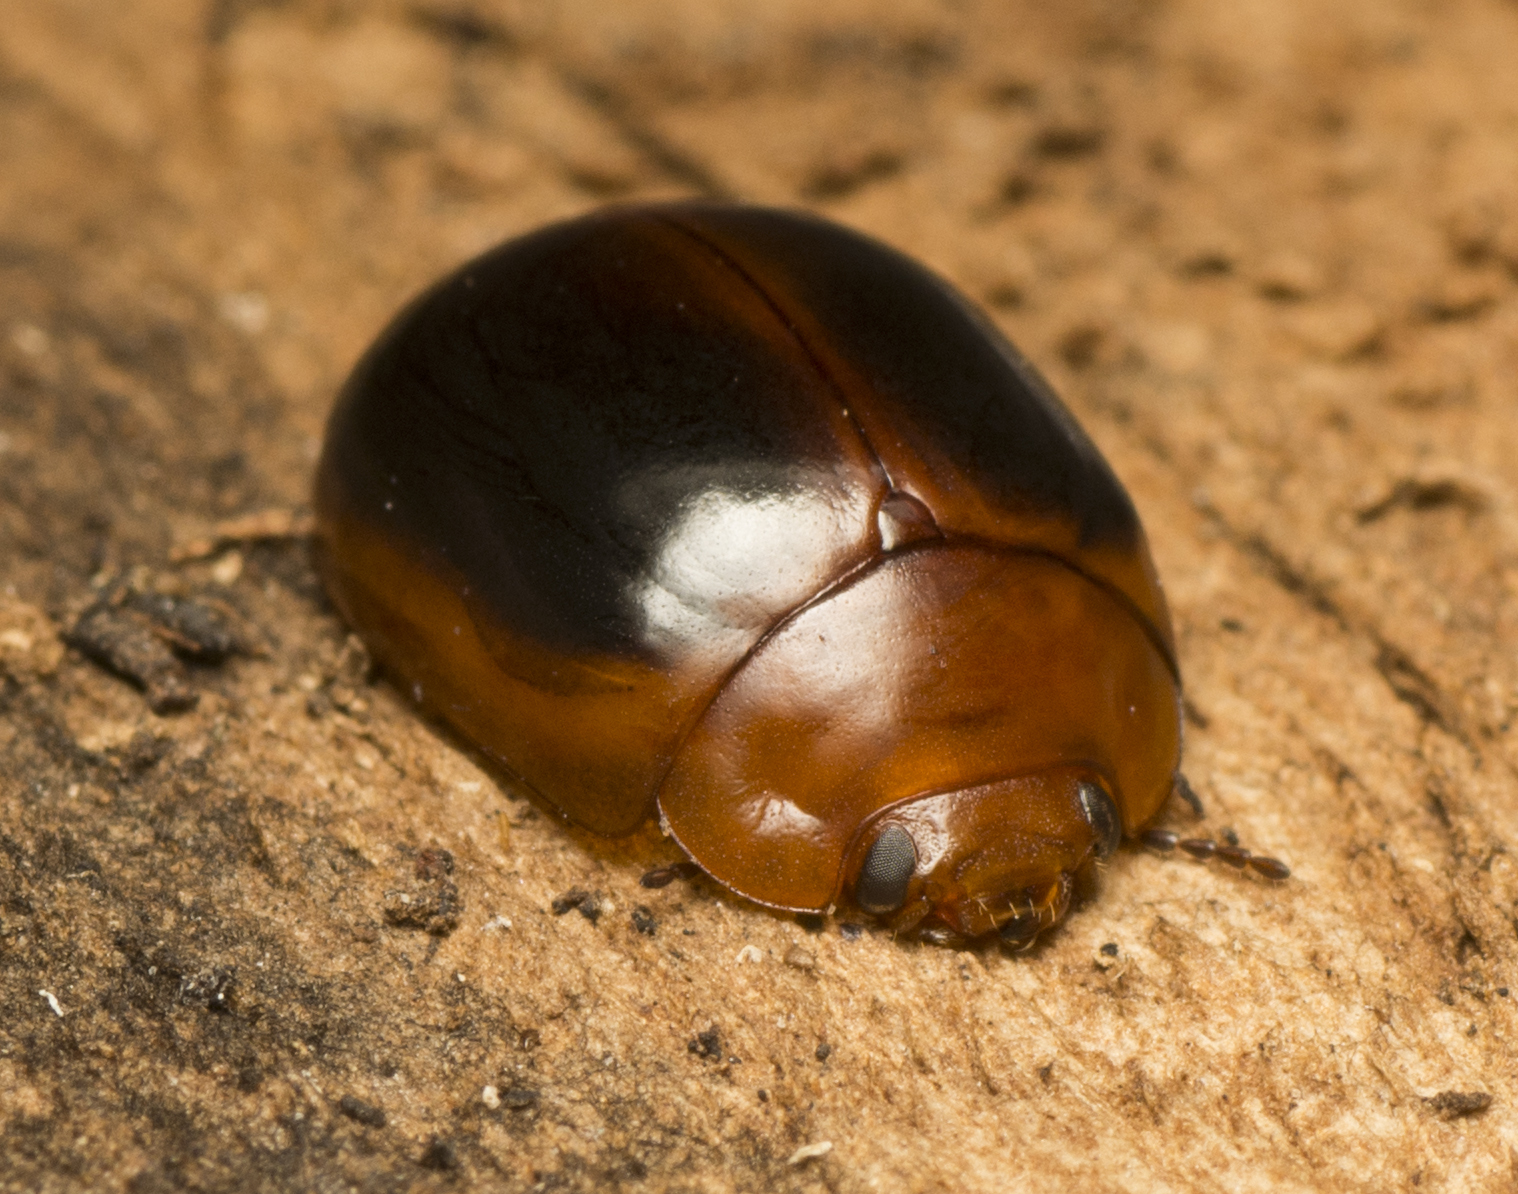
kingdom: Animalia
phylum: Arthropoda
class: Insecta
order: Coleoptera
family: Chrysomelidae
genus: Paropsisterna
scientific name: Paropsisterna
